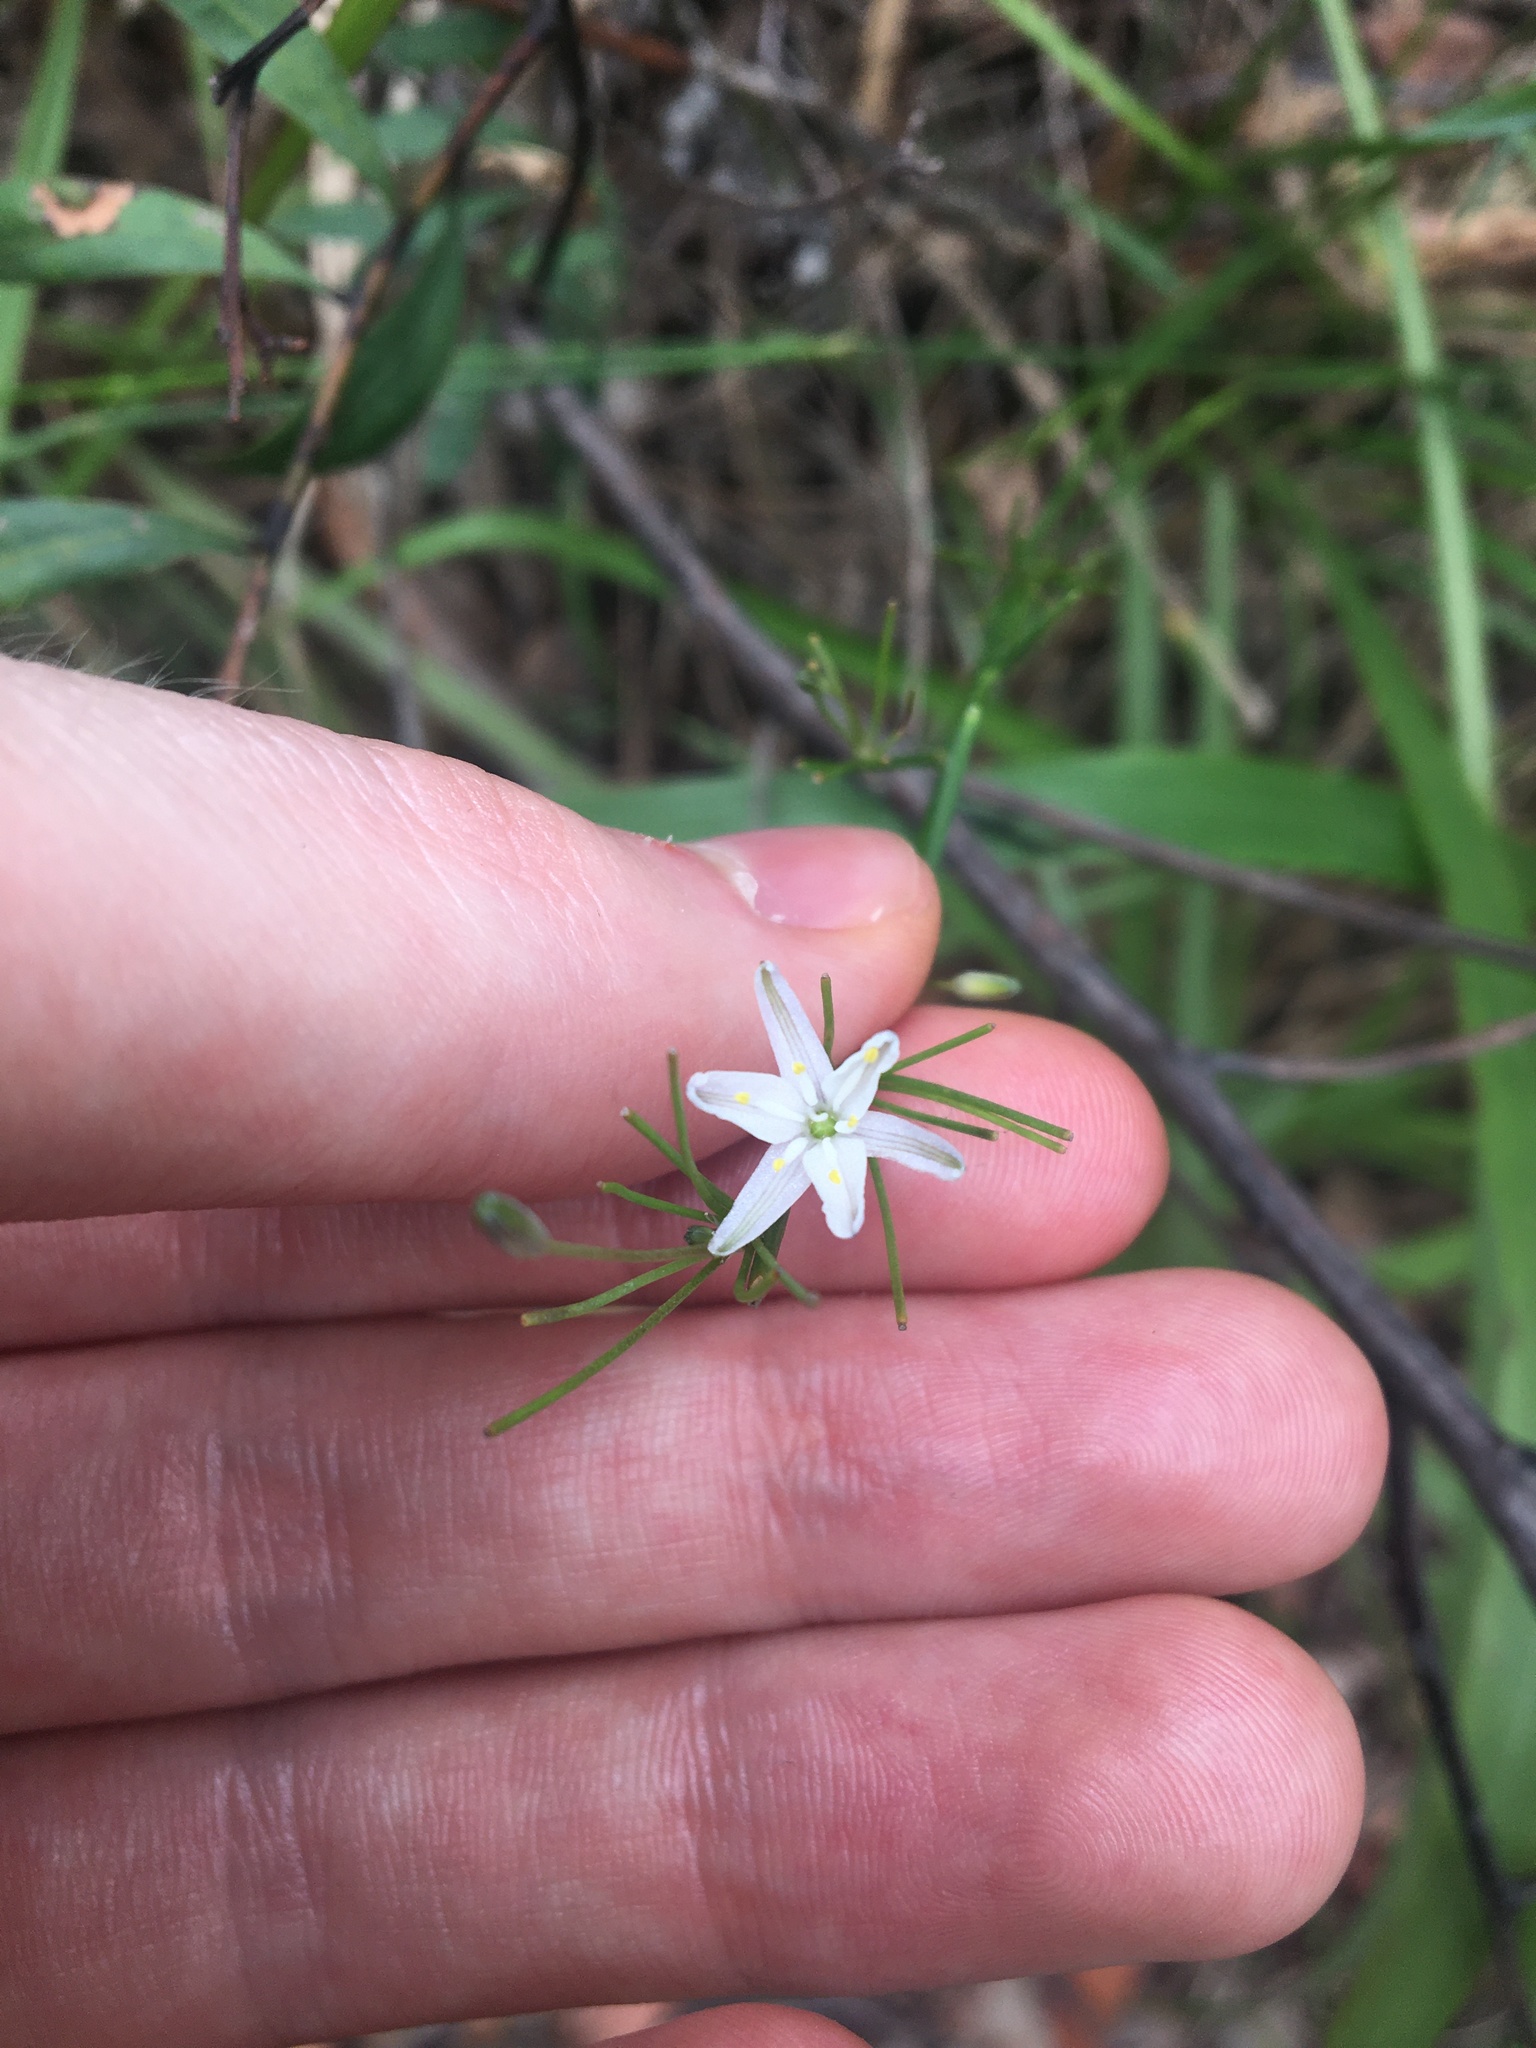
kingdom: Plantae
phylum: Tracheophyta
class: Liliopsida
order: Asparagales
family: Asphodelaceae
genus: Caesia
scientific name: Caesia parviflora
